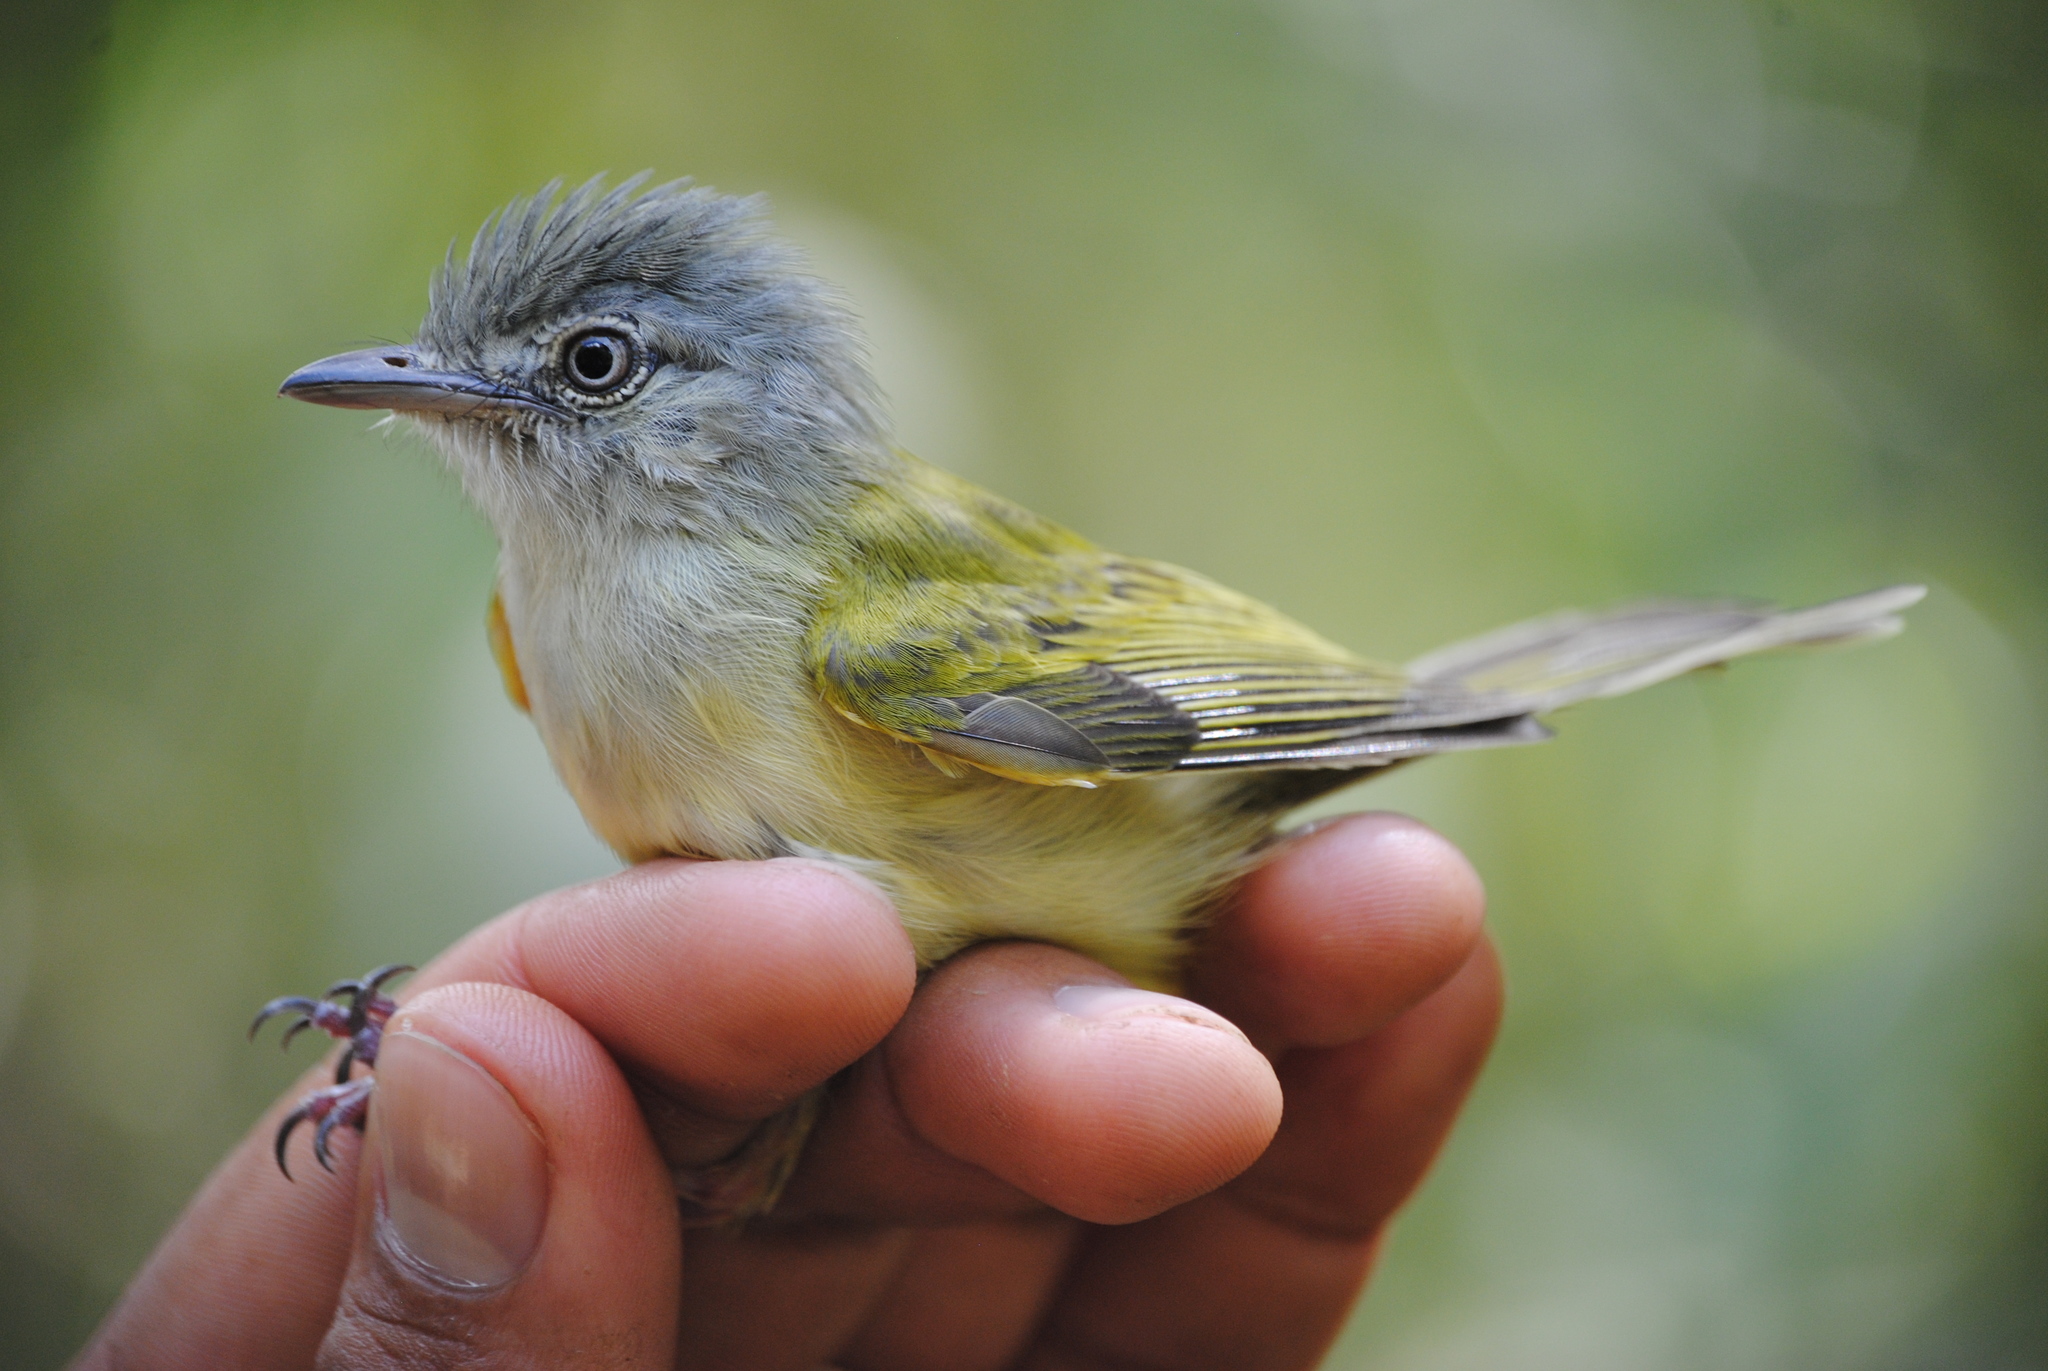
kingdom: Animalia
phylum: Chordata
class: Aves
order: Passeriformes
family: Tyrannidae
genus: Tolmomyias
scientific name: Tolmomyias sulphurescens
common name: Yellow-olive flycatcher
